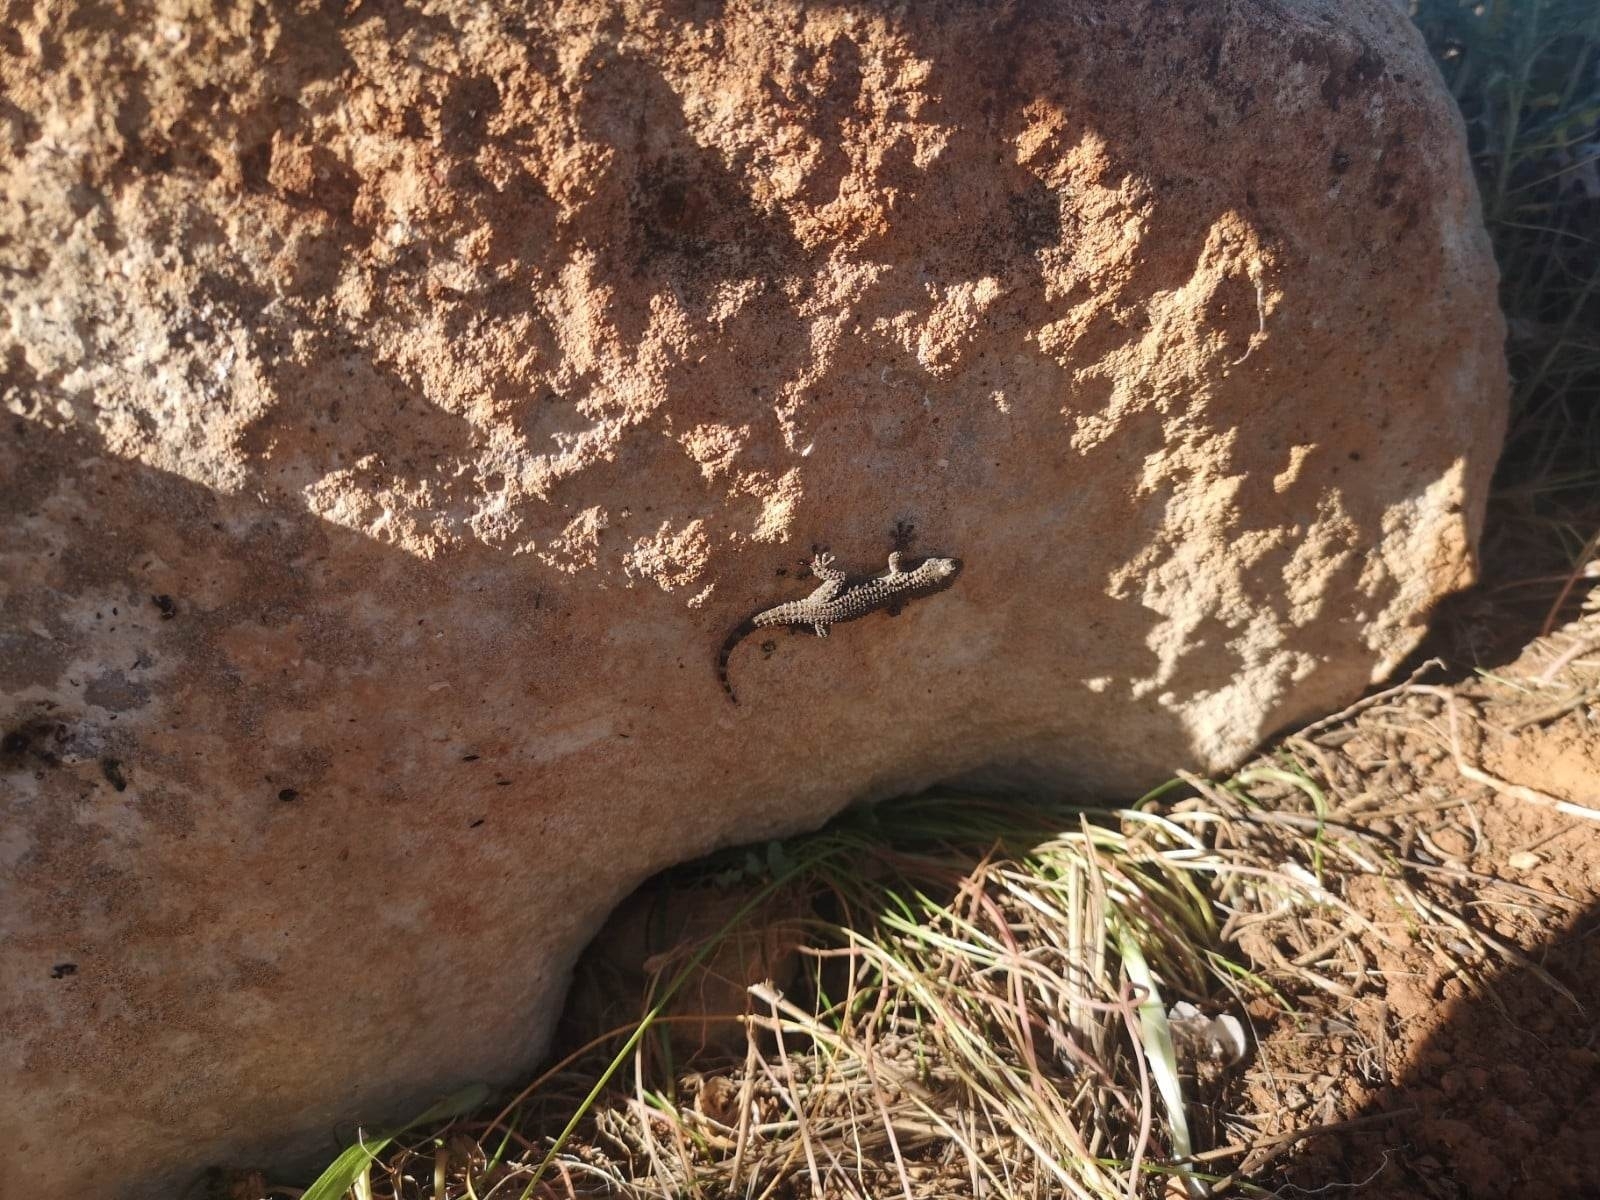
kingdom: Animalia
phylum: Chordata
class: Squamata
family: Phyllodactylidae
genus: Tarentola
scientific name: Tarentola mauritanica
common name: Moorish gecko
